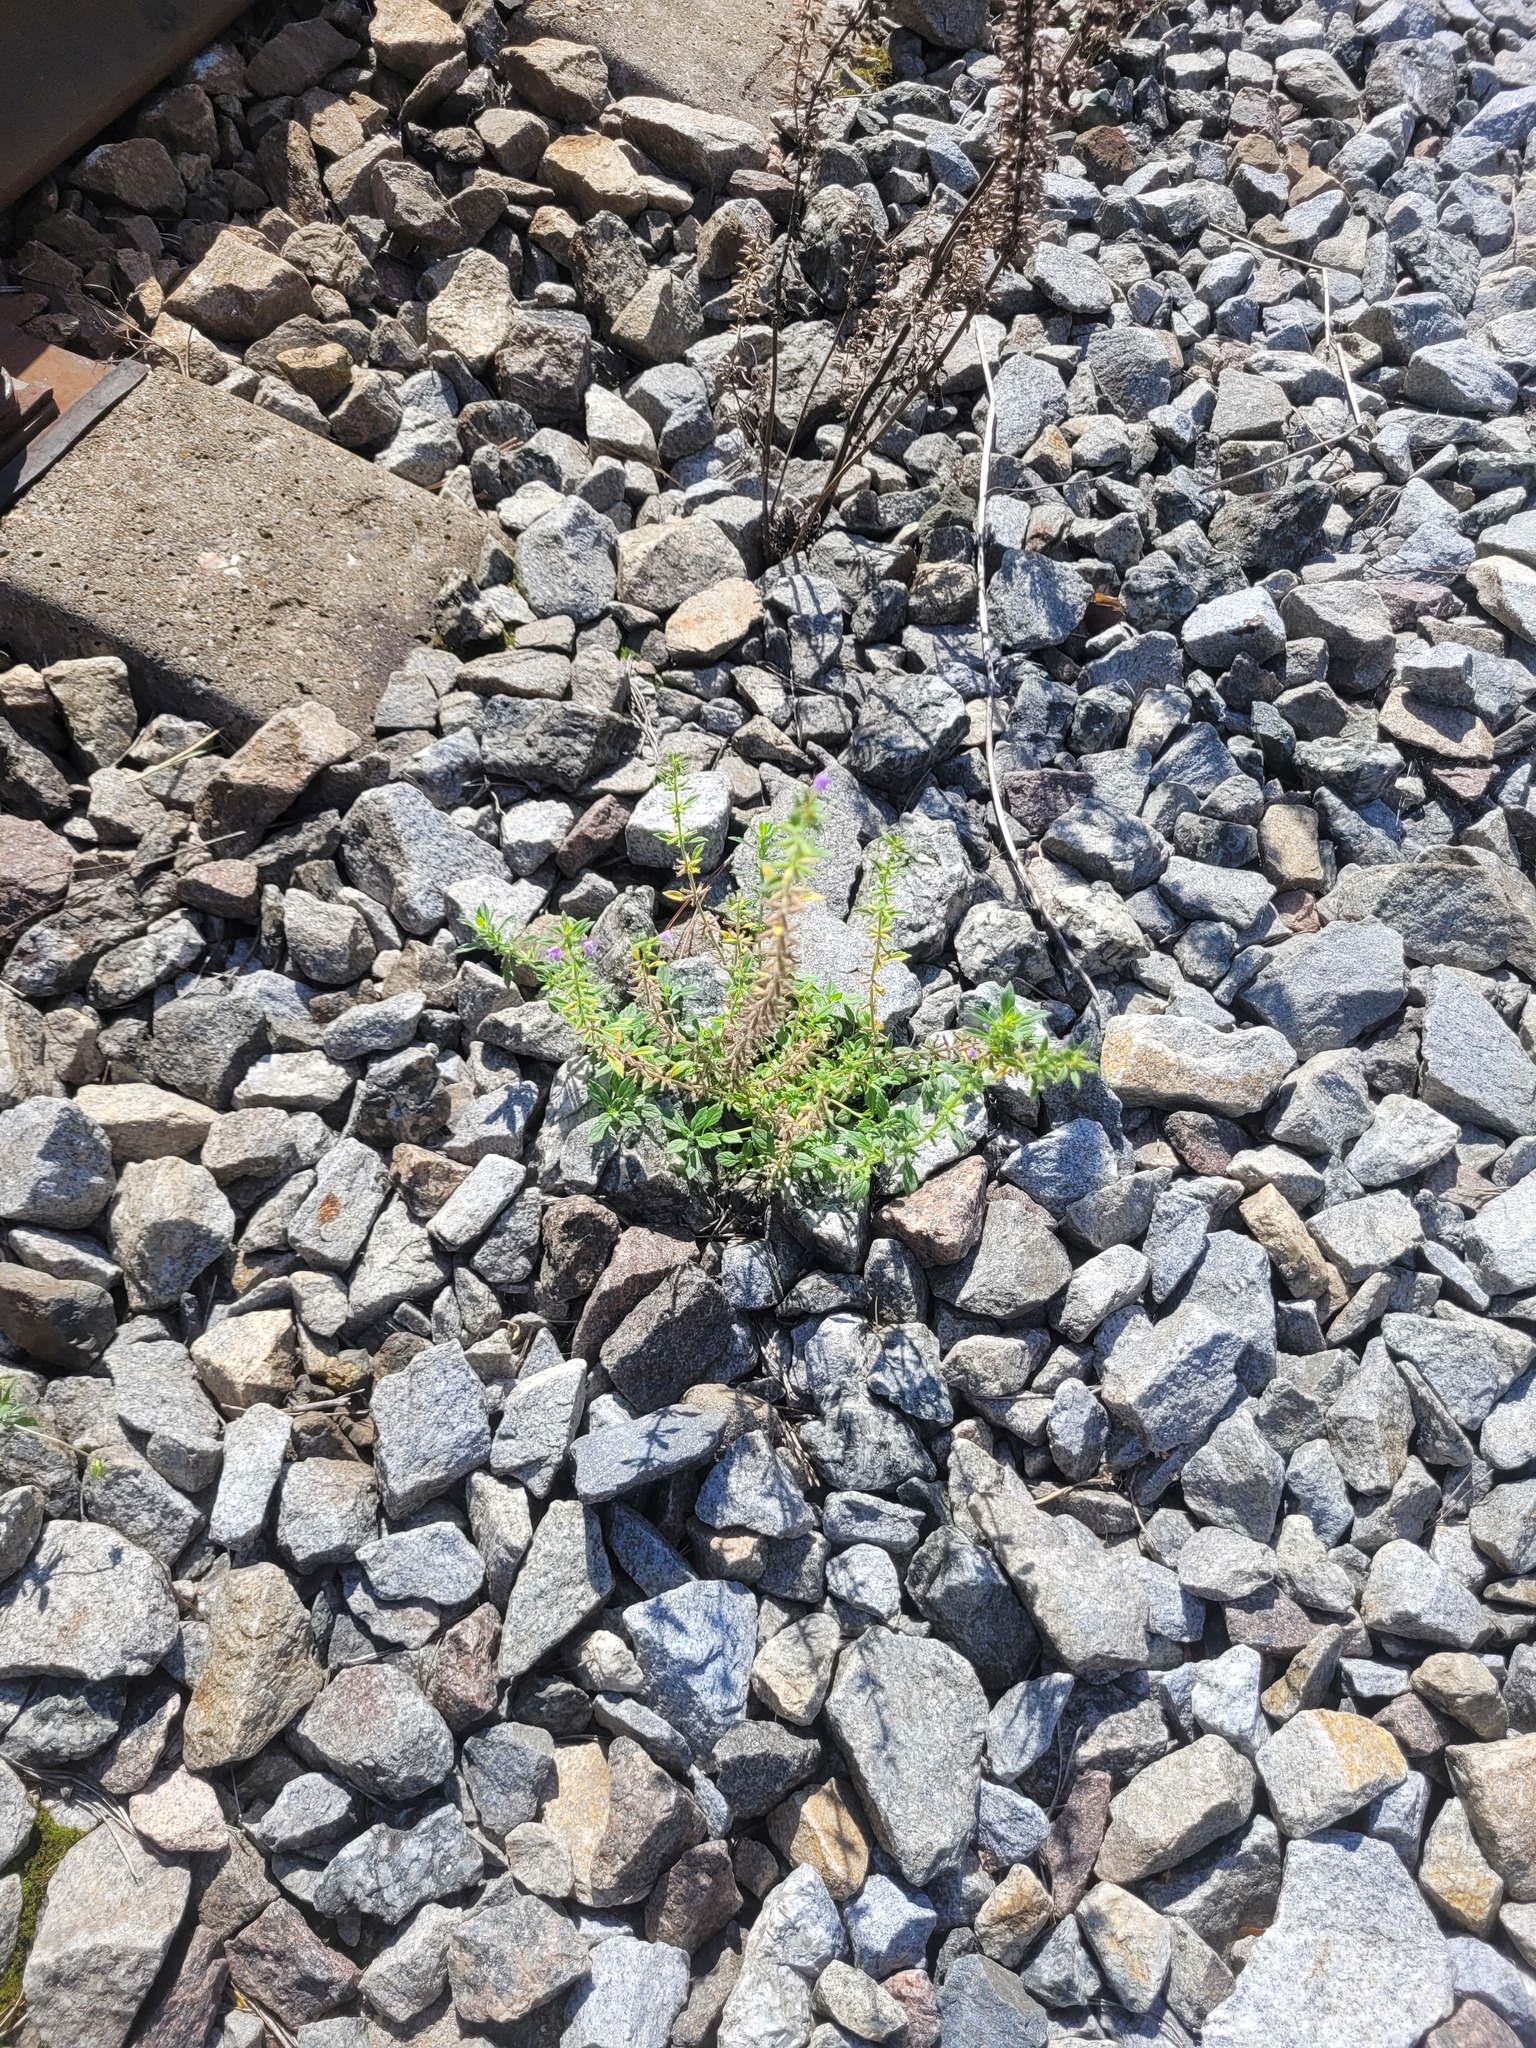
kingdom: Plantae
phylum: Tracheophyta
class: Magnoliopsida
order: Lamiales
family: Lamiaceae
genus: Clinopodium
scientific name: Clinopodium acinos
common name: Basil thyme
